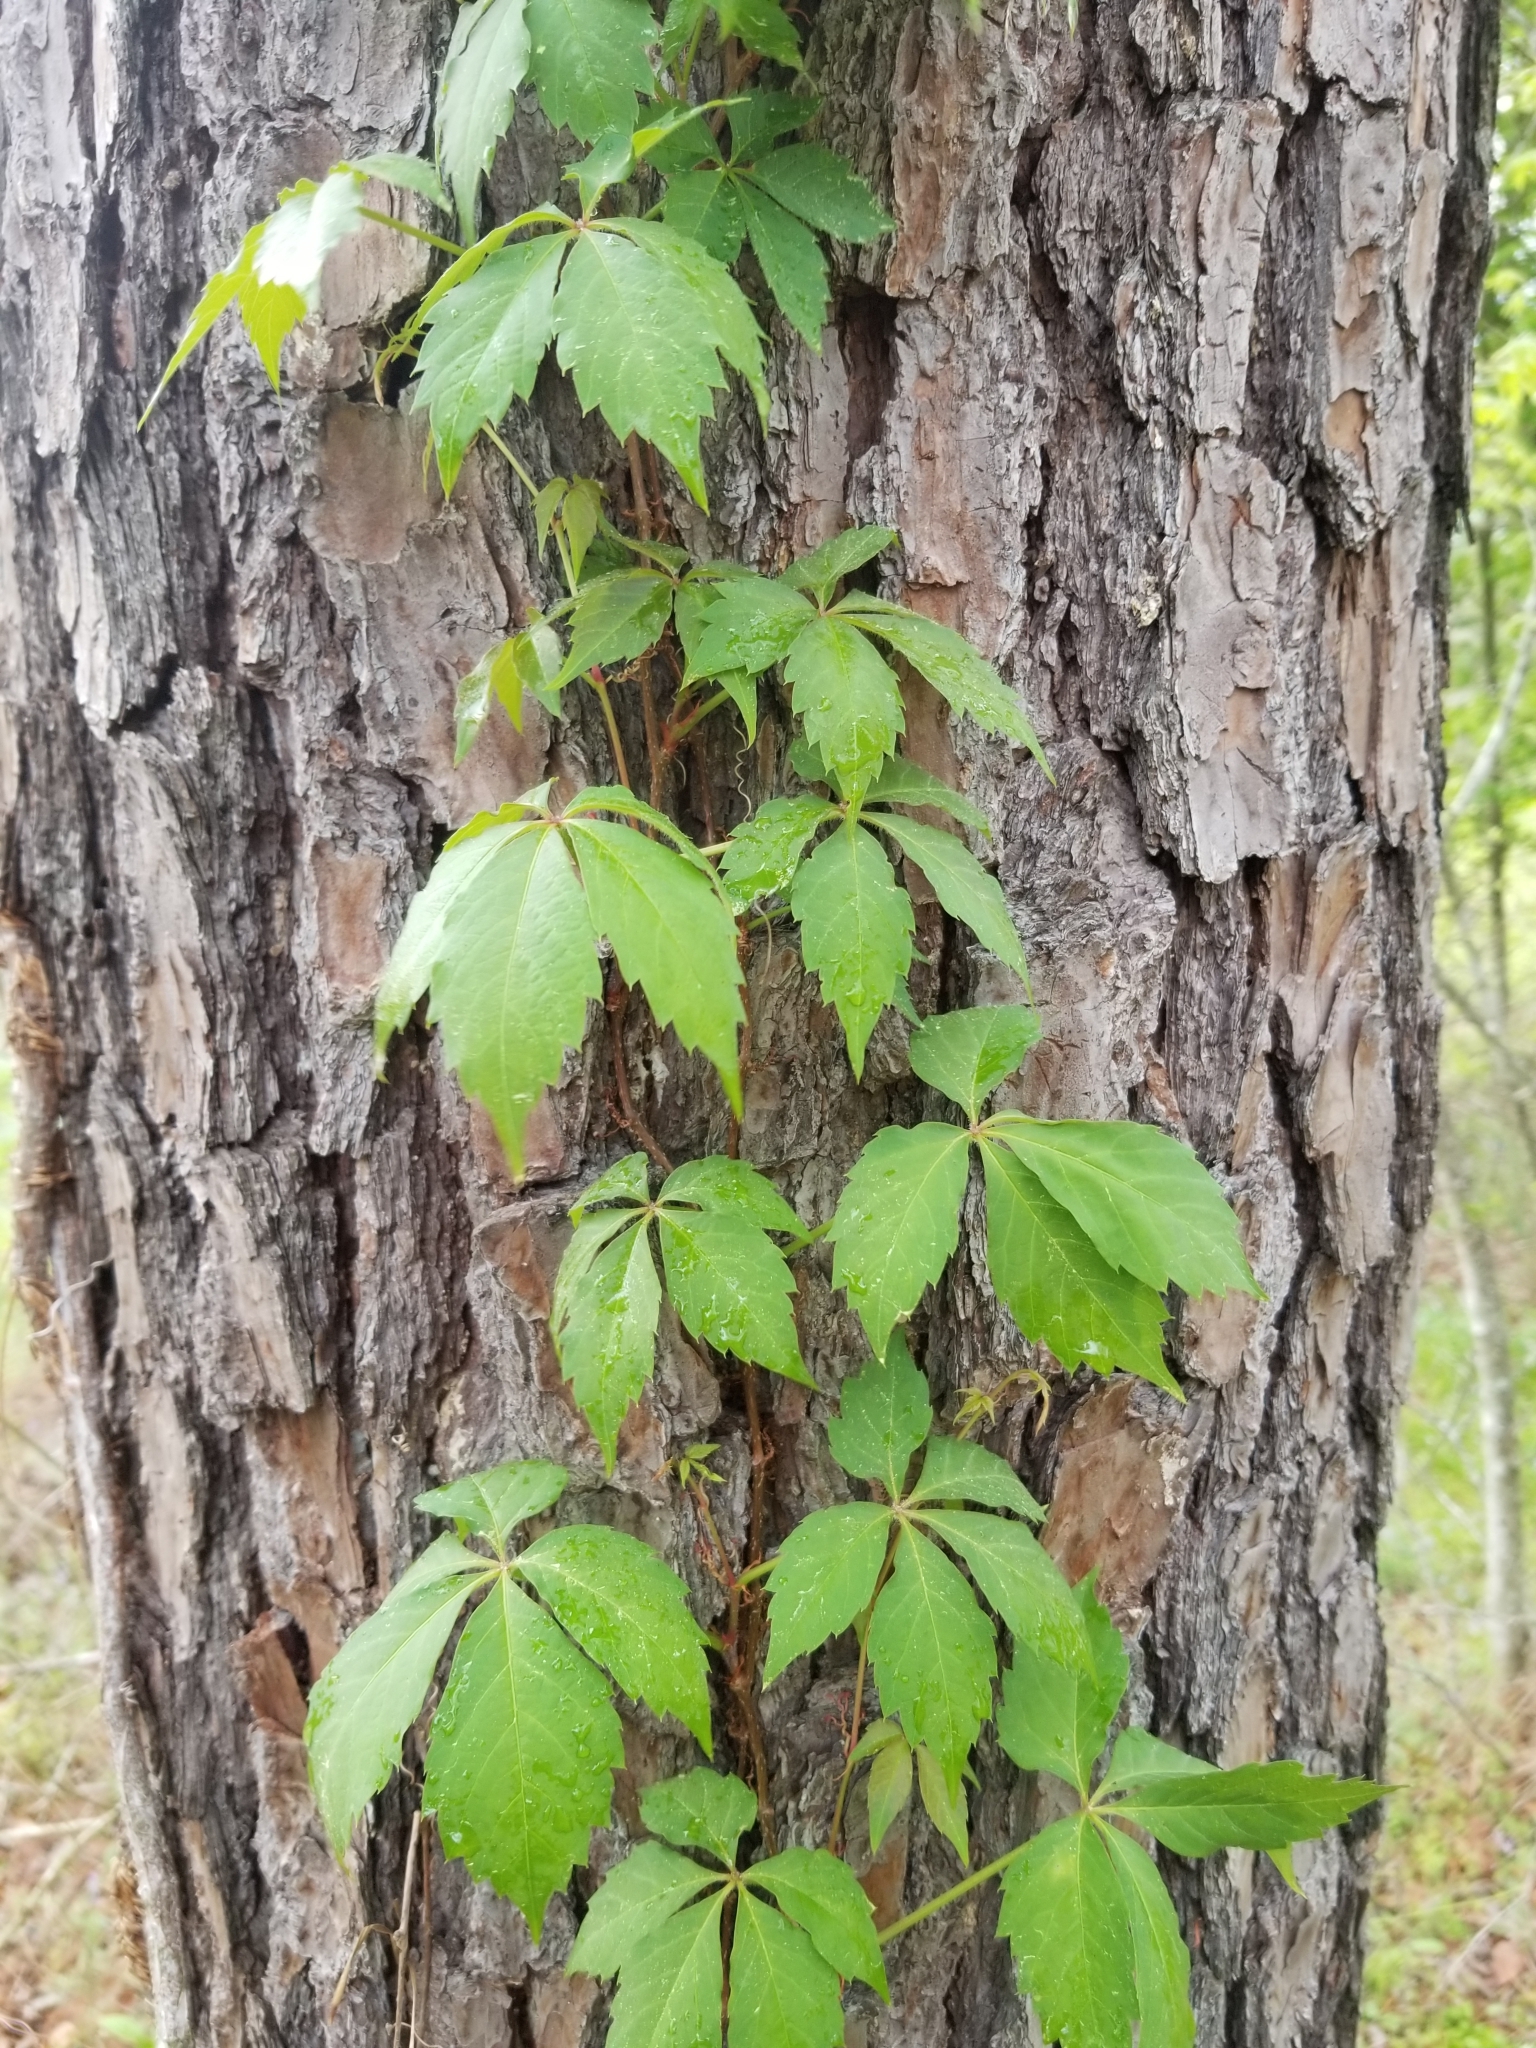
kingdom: Plantae
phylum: Tracheophyta
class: Magnoliopsida
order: Vitales
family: Vitaceae
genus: Parthenocissus
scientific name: Parthenocissus quinquefolia
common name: Virginia-creeper
